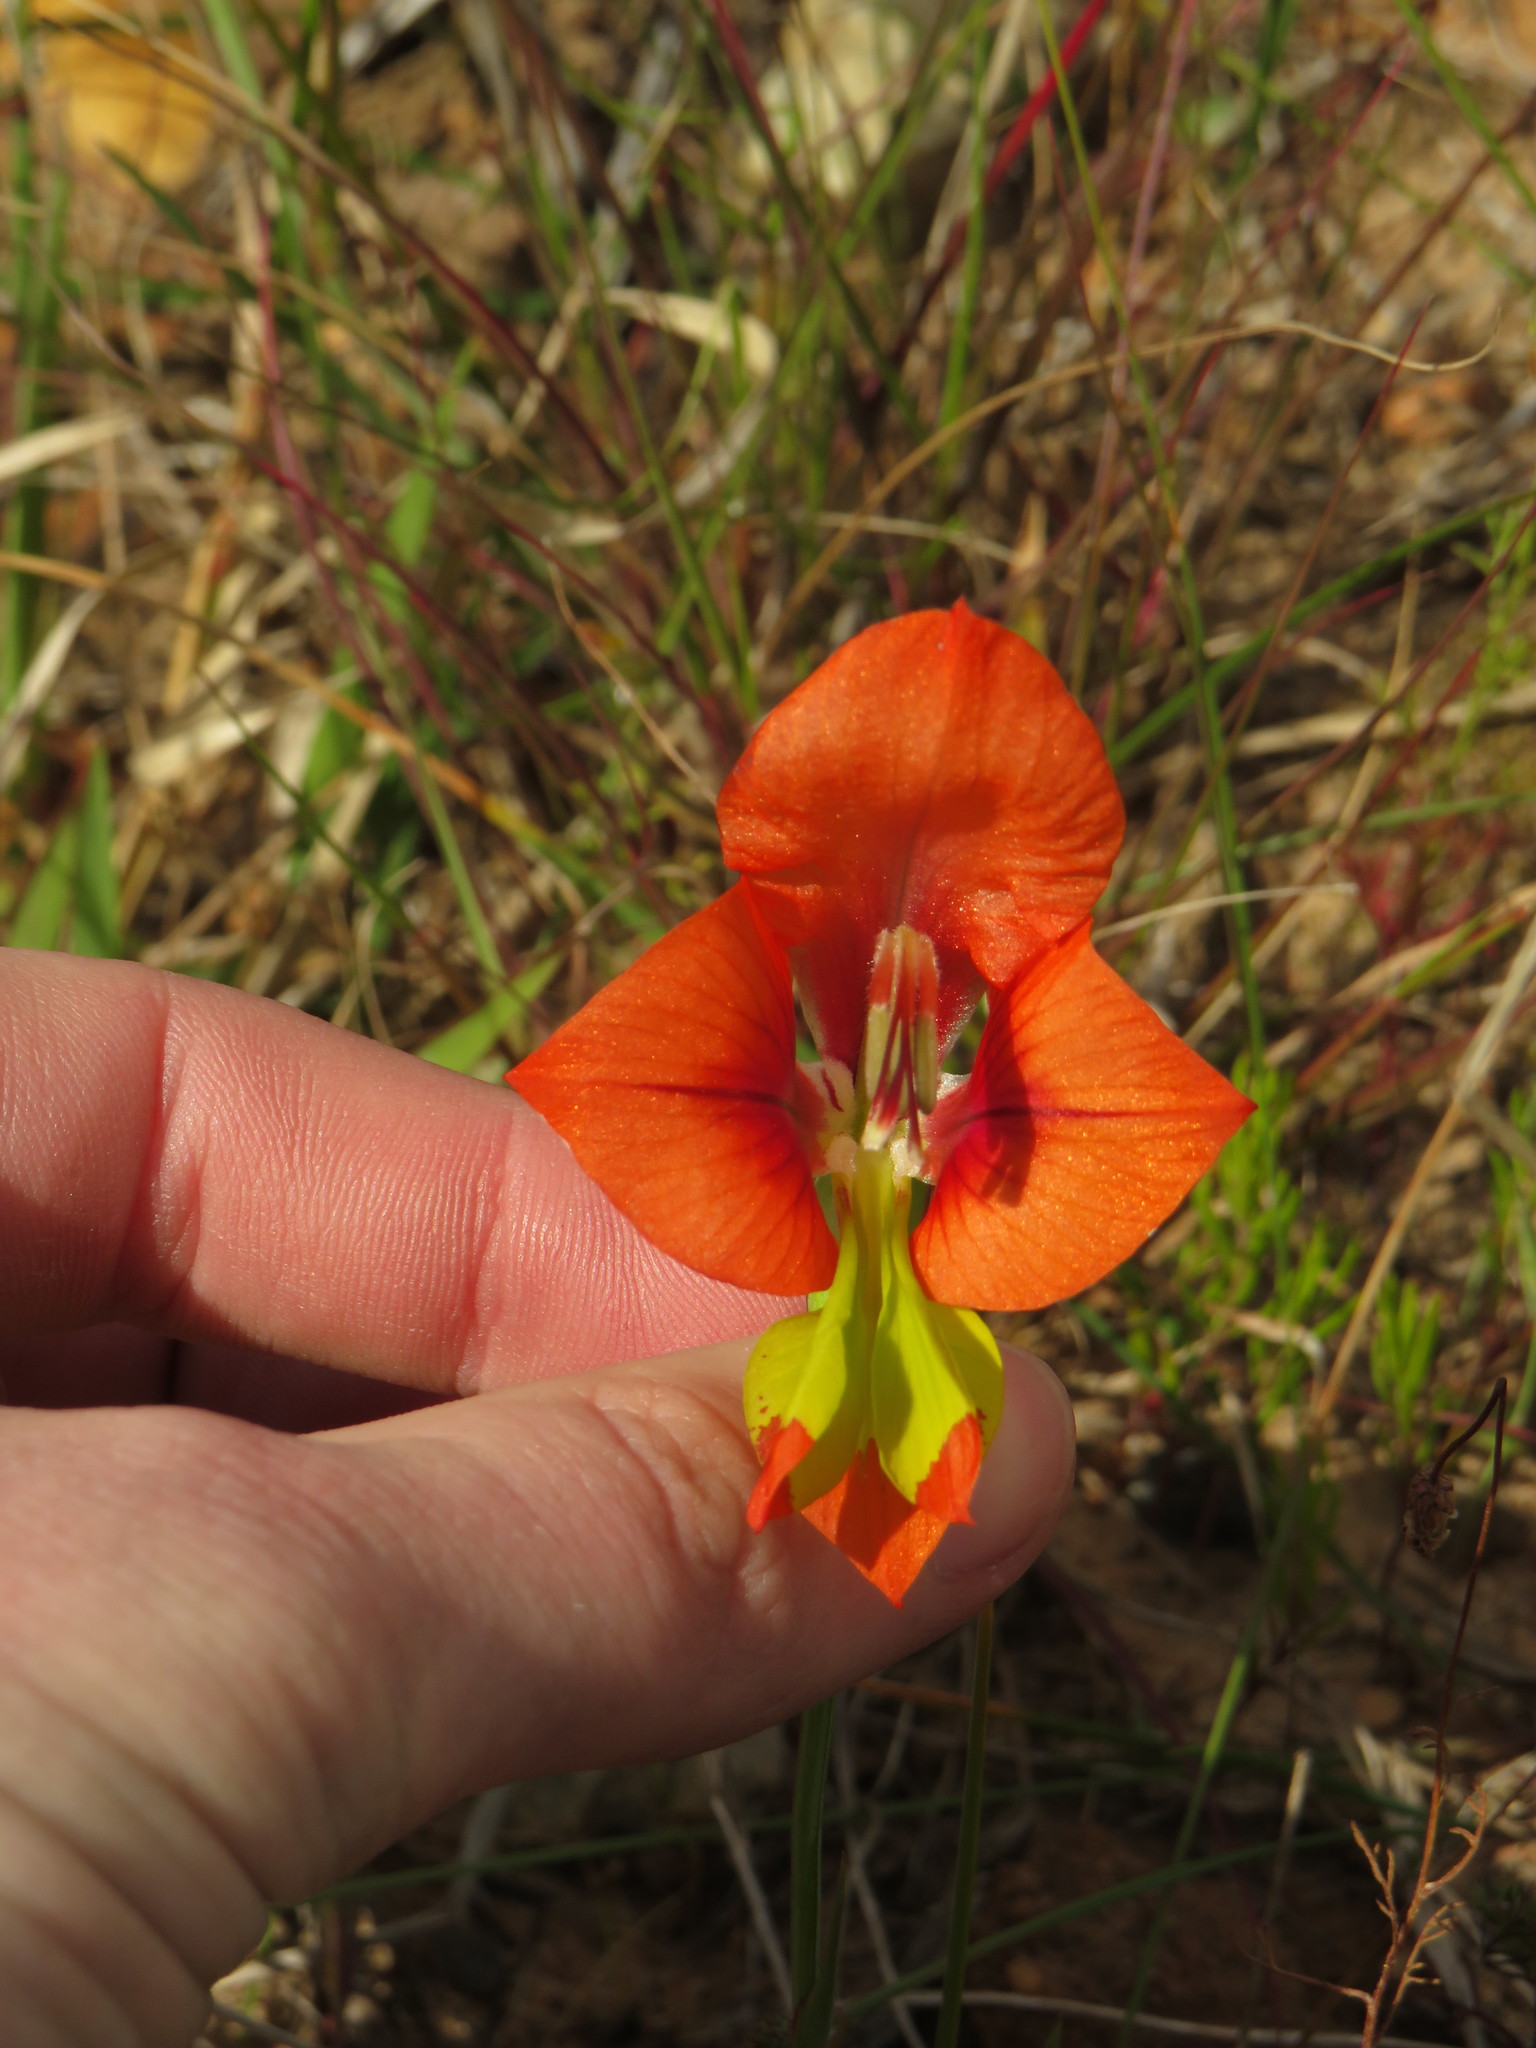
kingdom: Plantae
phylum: Tracheophyta
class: Liliopsida
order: Asparagales
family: Iridaceae
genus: Gladiolus
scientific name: Gladiolus alatus
